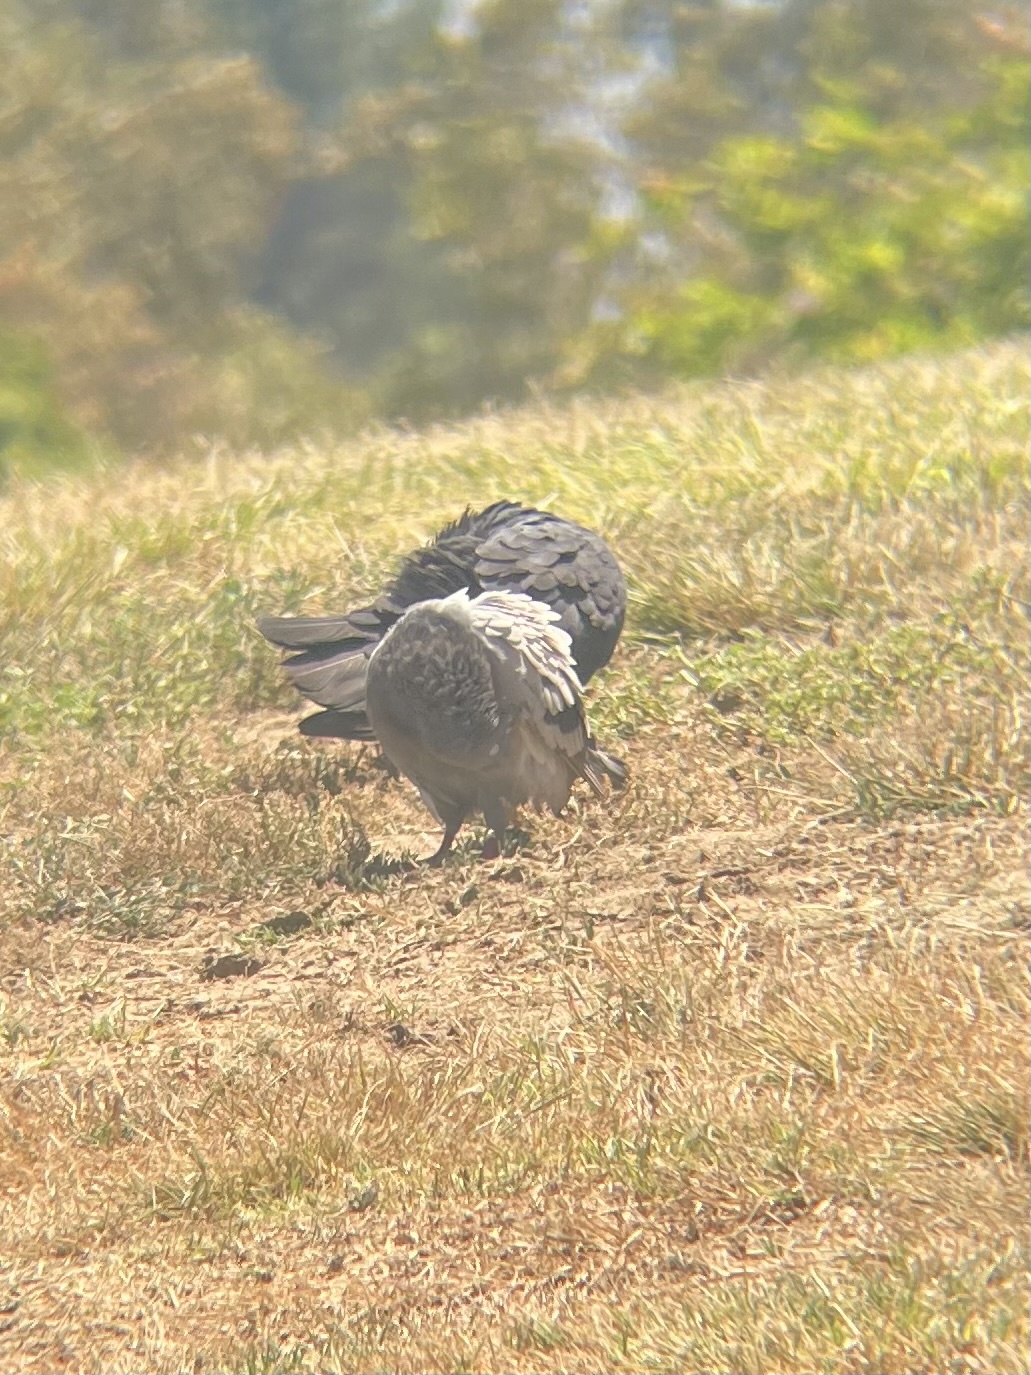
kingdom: Animalia
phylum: Chordata
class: Aves
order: Columbiformes
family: Columbidae
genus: Columba
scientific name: Columba livia
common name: Rock pigeon
